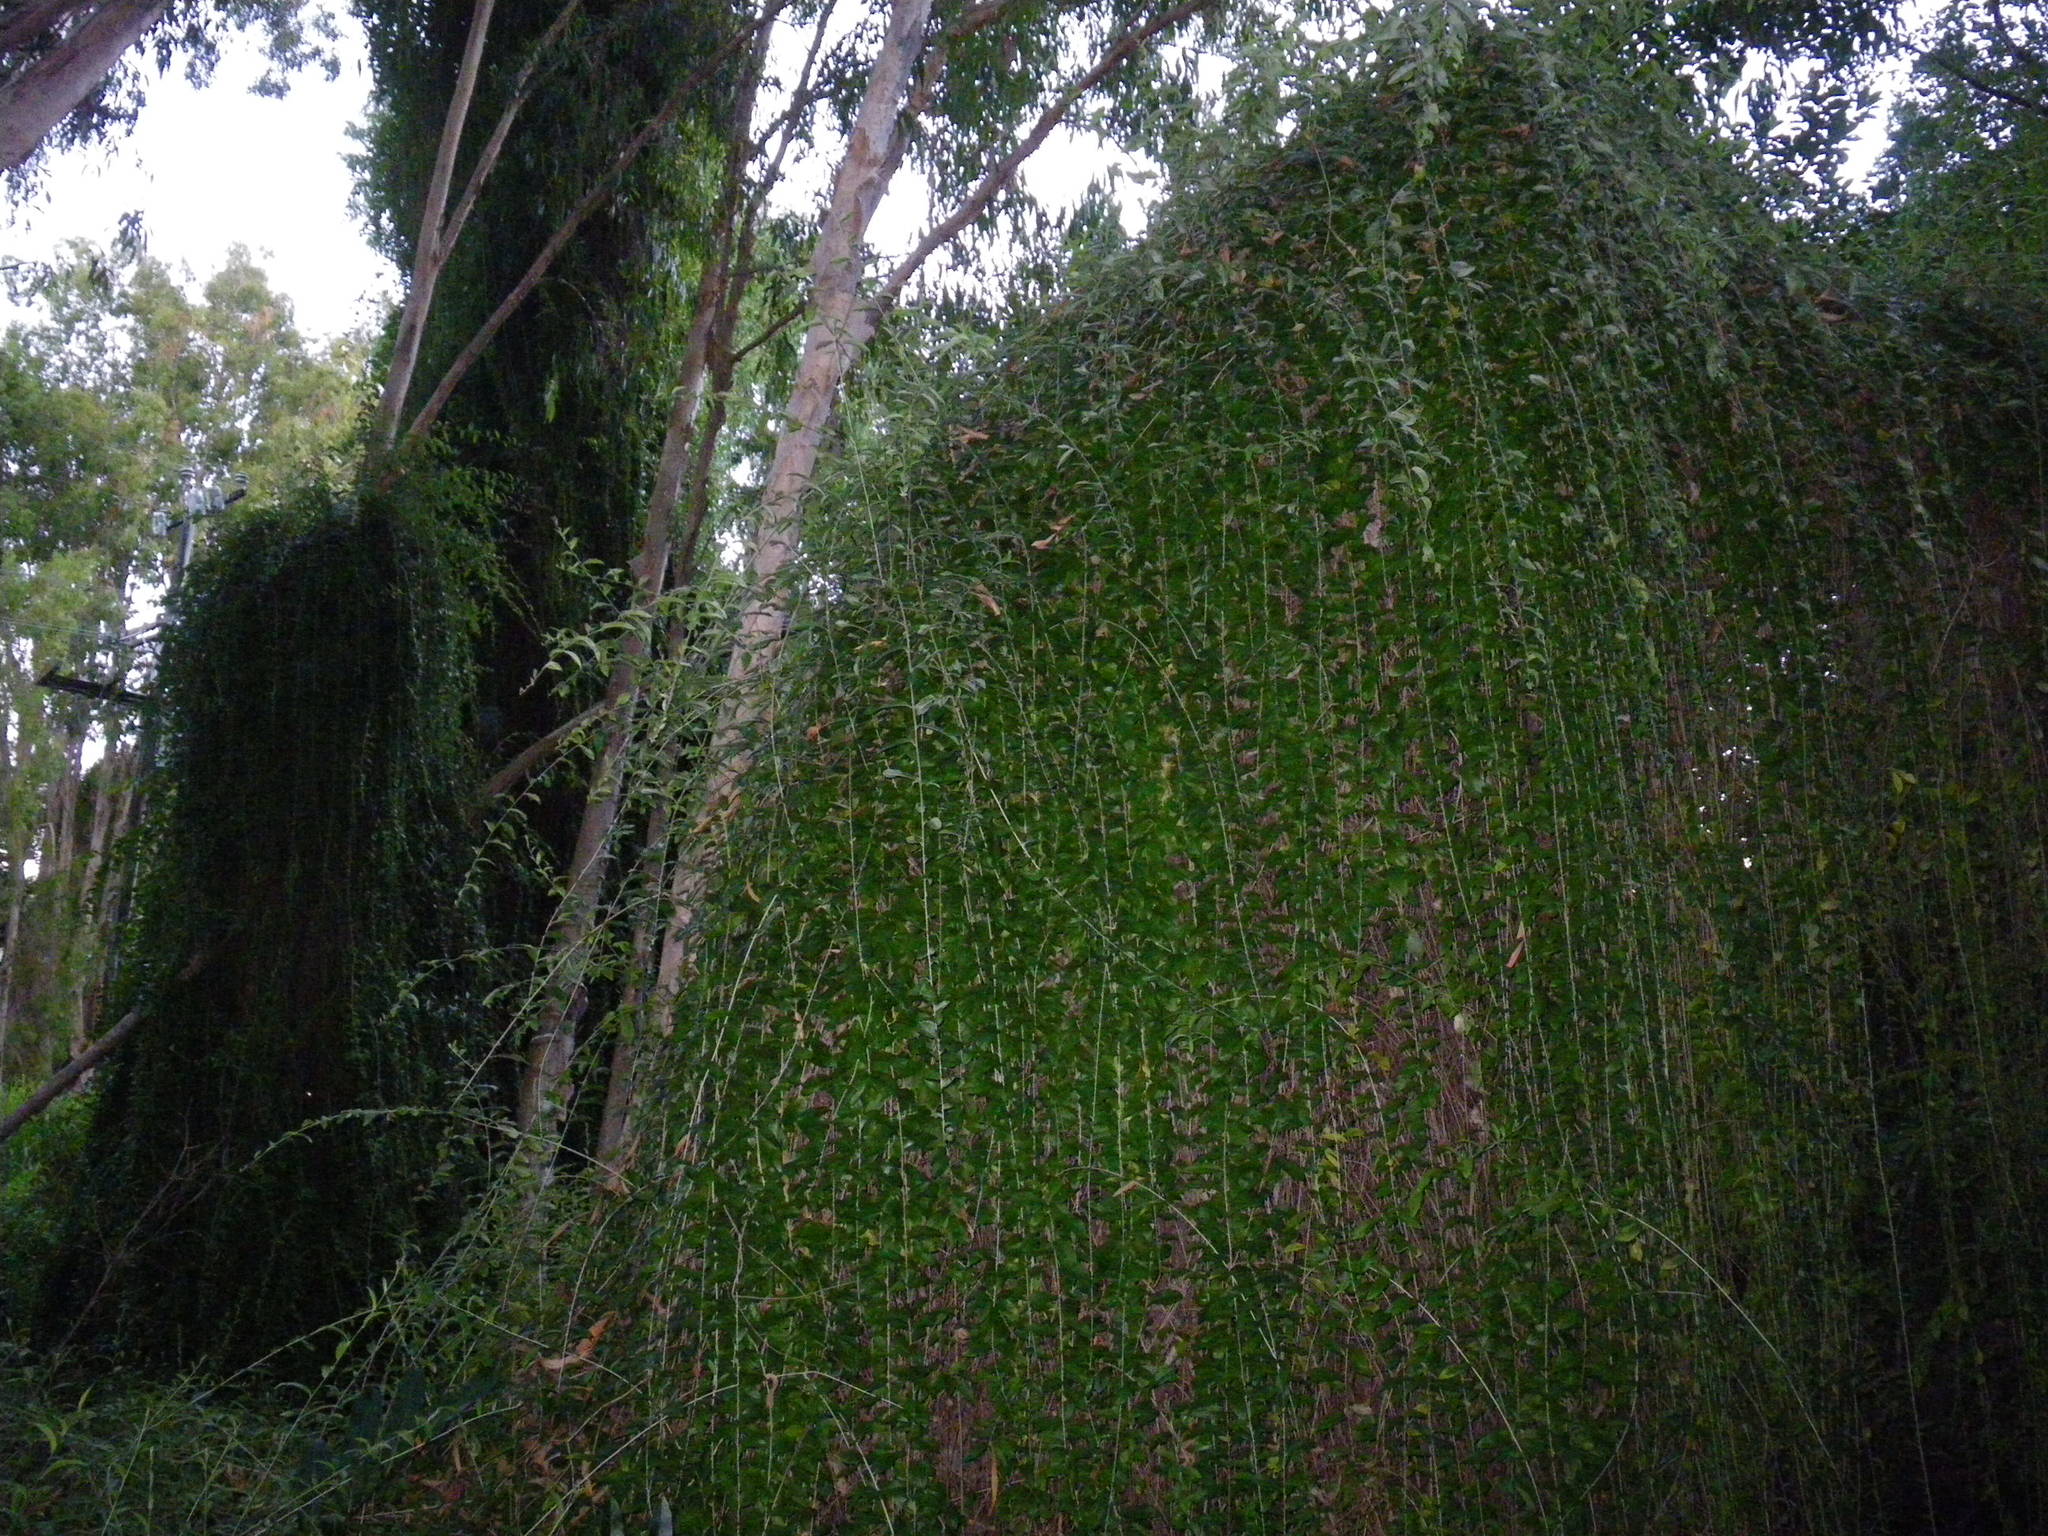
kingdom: Plantae
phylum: Tracheophyta
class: Magnoliopsida
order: Asterales
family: Asteraceae
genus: Tarlmounia
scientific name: Tarlmounia elliptica
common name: Kheua sa lot
